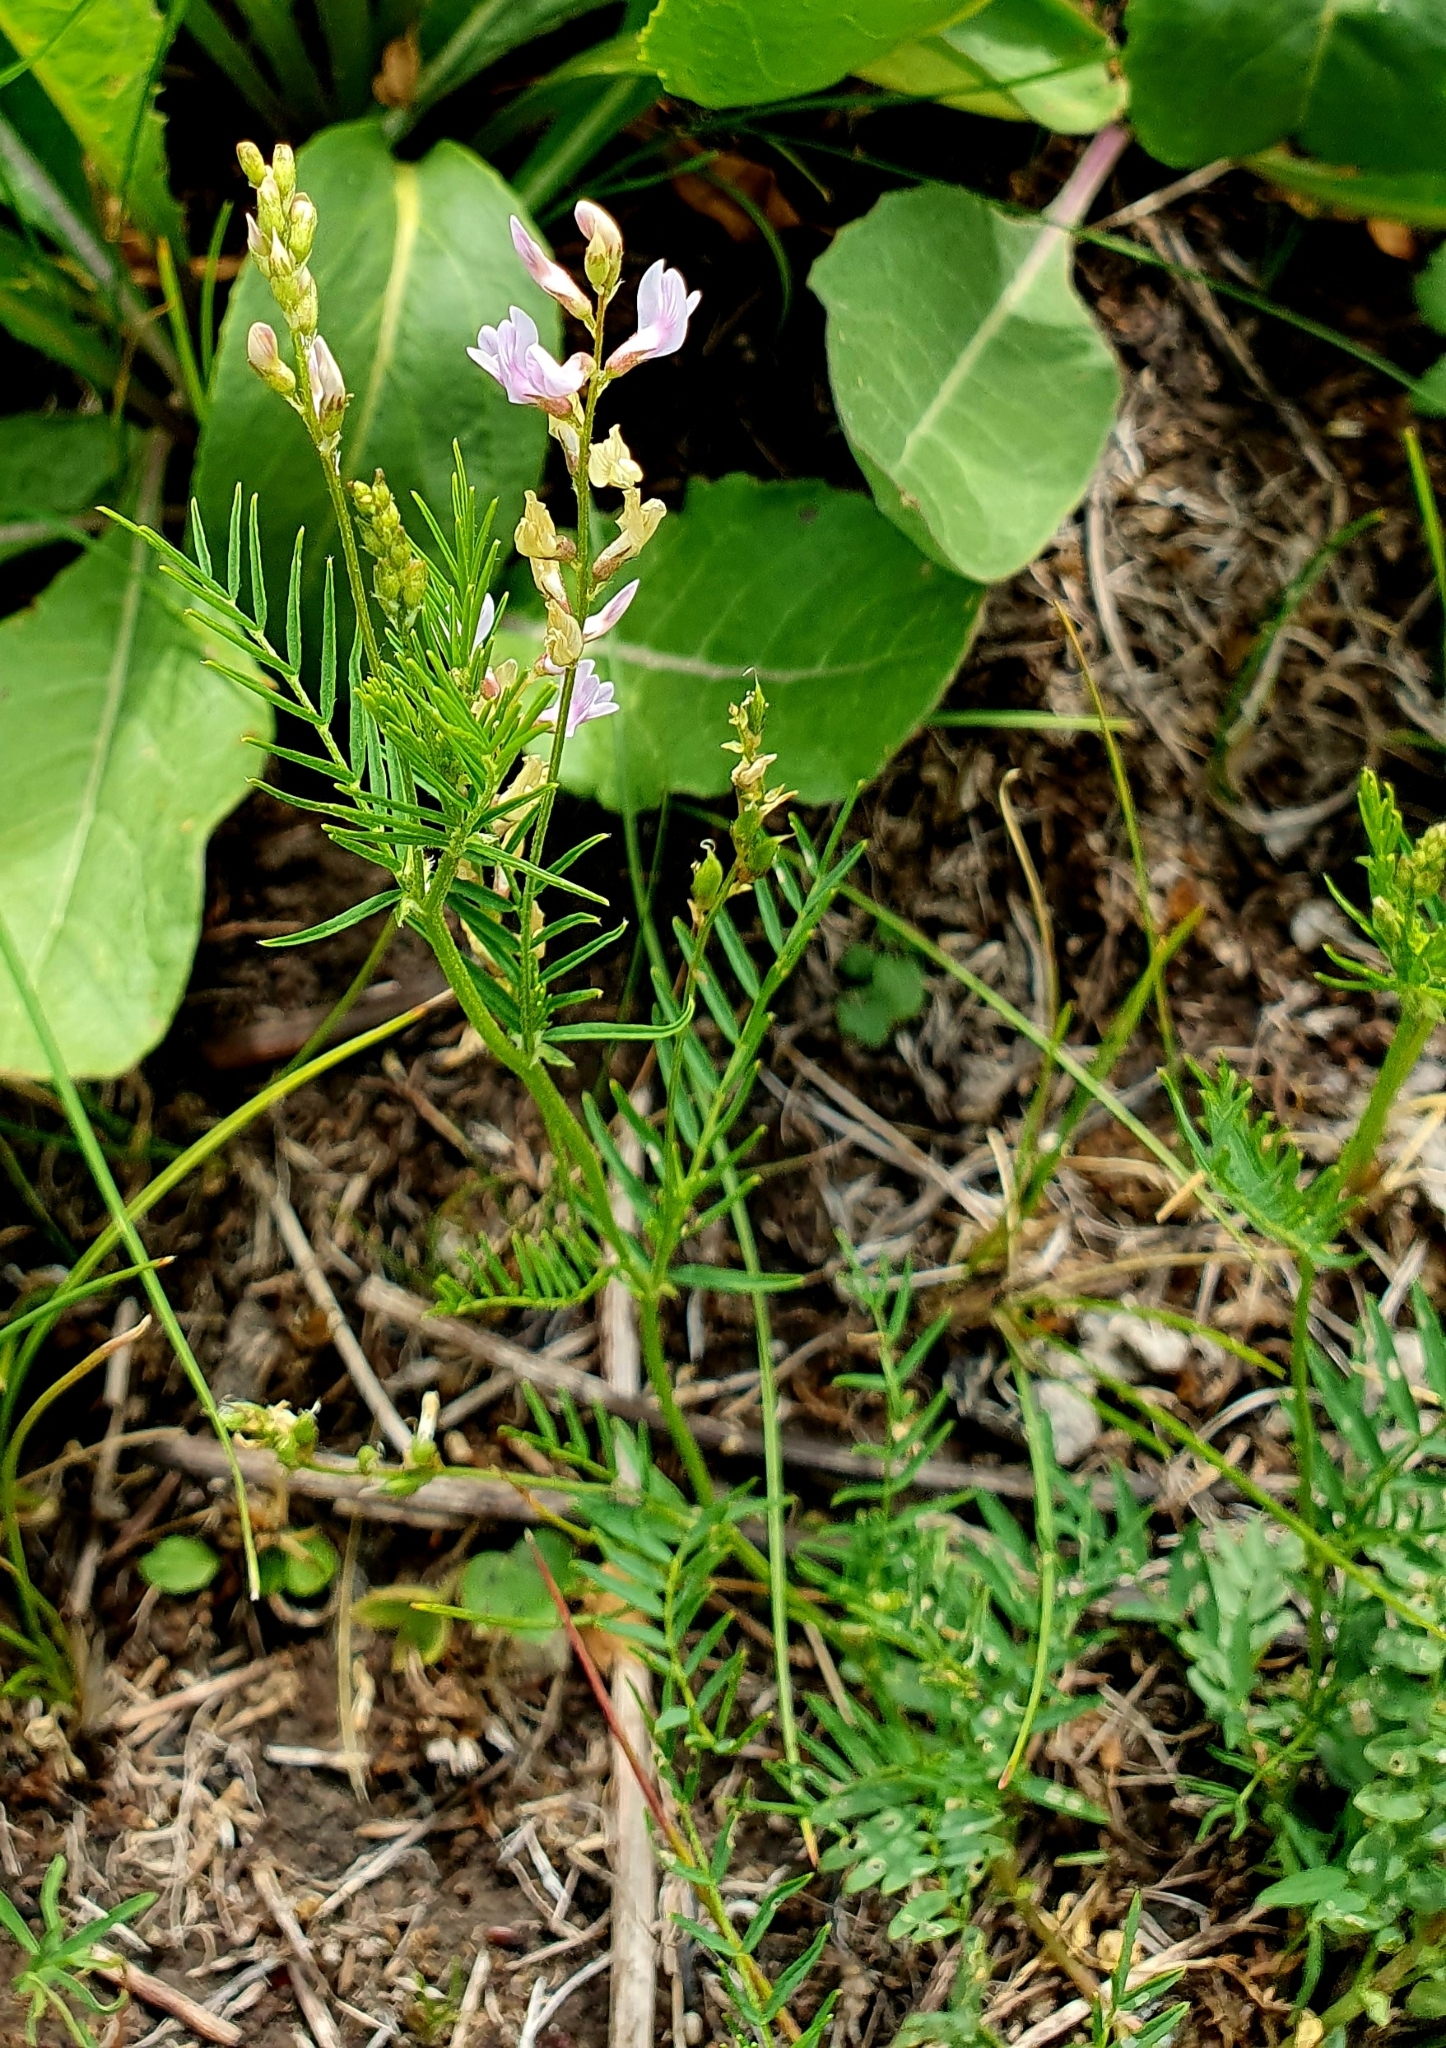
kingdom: Plantae
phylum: Tracheophyta
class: Magnoliopsida
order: Fabales
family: Fabaceae
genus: Astragalus
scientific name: Astragalus sulcatus
